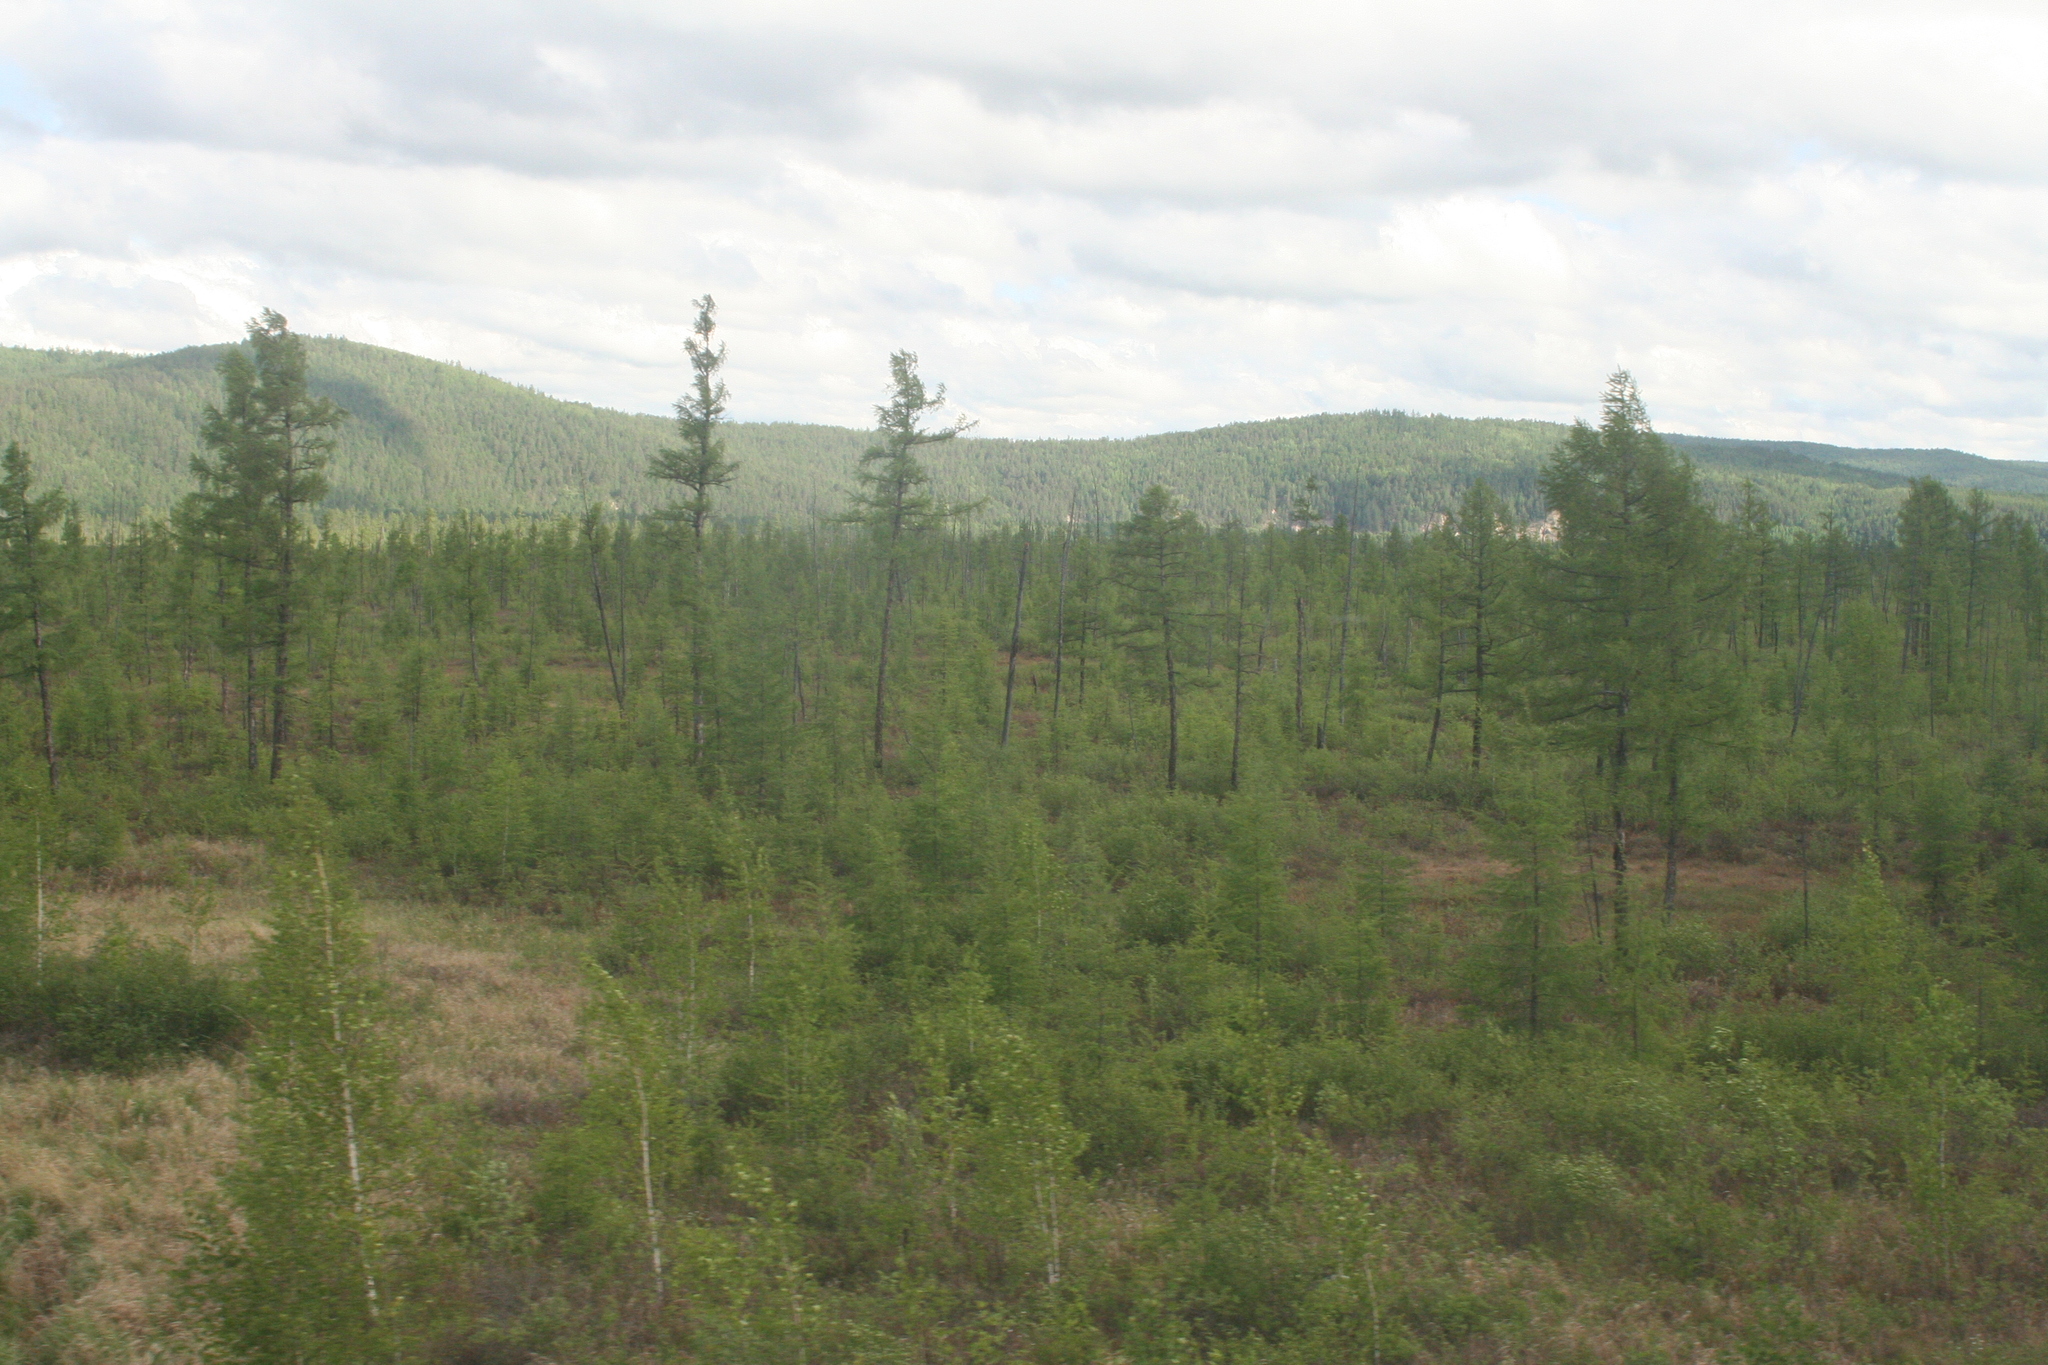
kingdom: Plantae
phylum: Tracheophyta
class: Pinopsida
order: Pinales
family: Pinaceae
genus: Larix
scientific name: Larix gmelinii
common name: Dahurian larch
